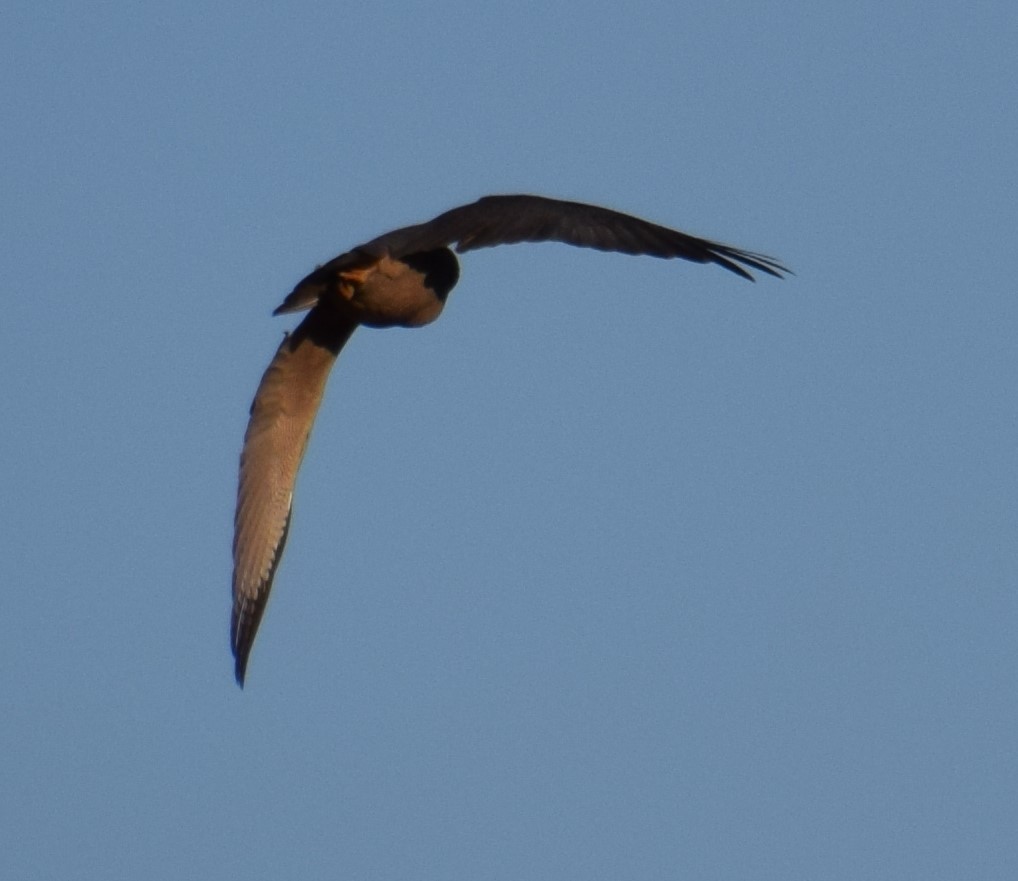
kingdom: Animalia
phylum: Chordata
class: Aves
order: Accipitriformes
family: Accipitridae
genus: Accipiter
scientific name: Accipiter cirrocephalus
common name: Collared sparrowhawk
